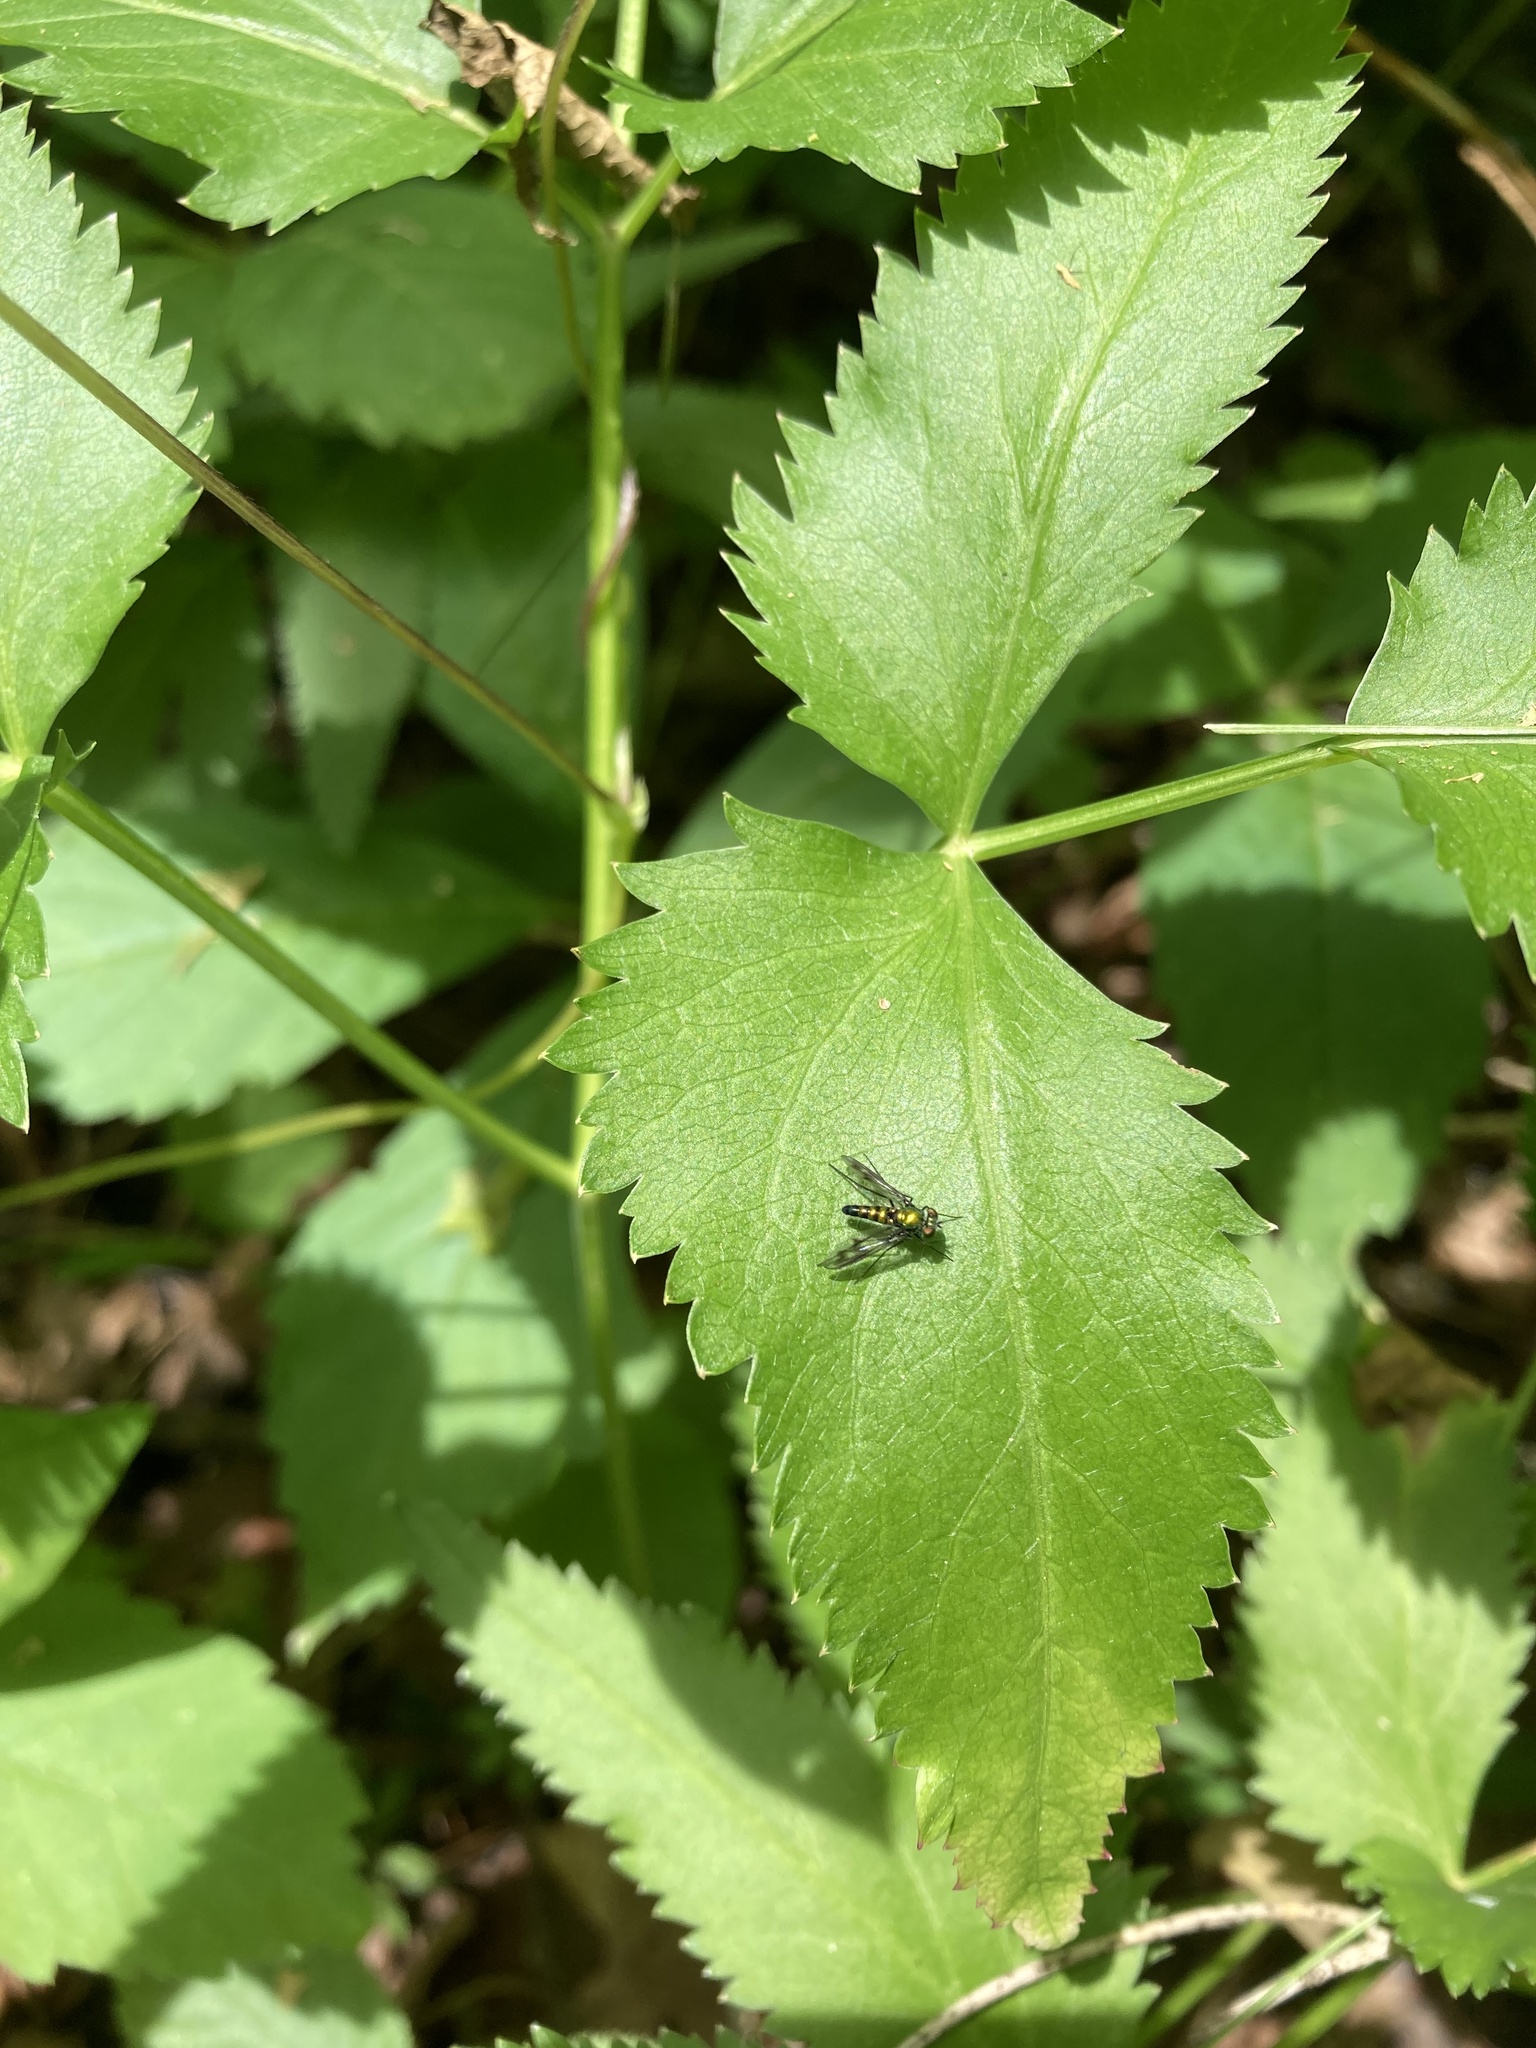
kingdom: Animalia
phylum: Arthropoda
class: Insecta
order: Diptera
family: Dolichopodidae
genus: Condylostylus
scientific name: Condylostylus patibulatus
